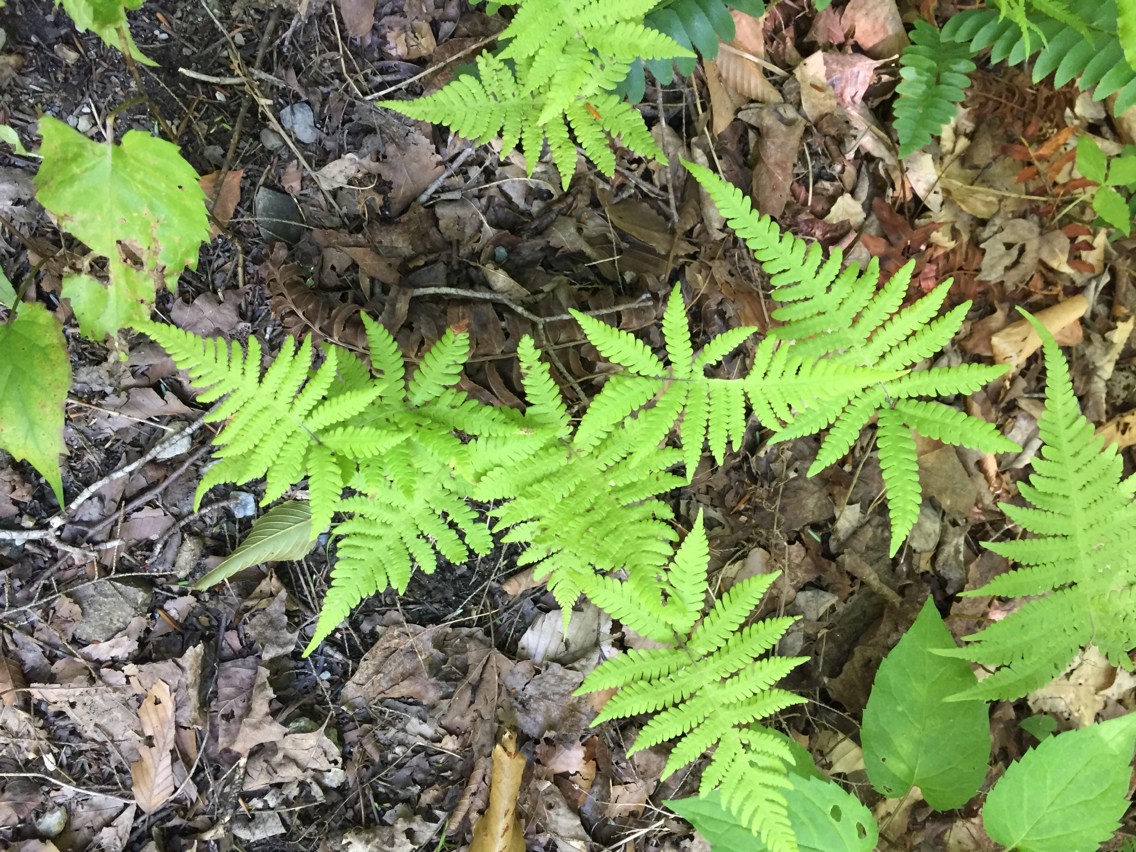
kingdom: Plantae
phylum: Tracheophyta
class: Polypodiopsida
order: Polypodiales
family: Thelypteridaceae
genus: Phegopteris
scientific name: Phegopteris connectilis
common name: Beech fern
